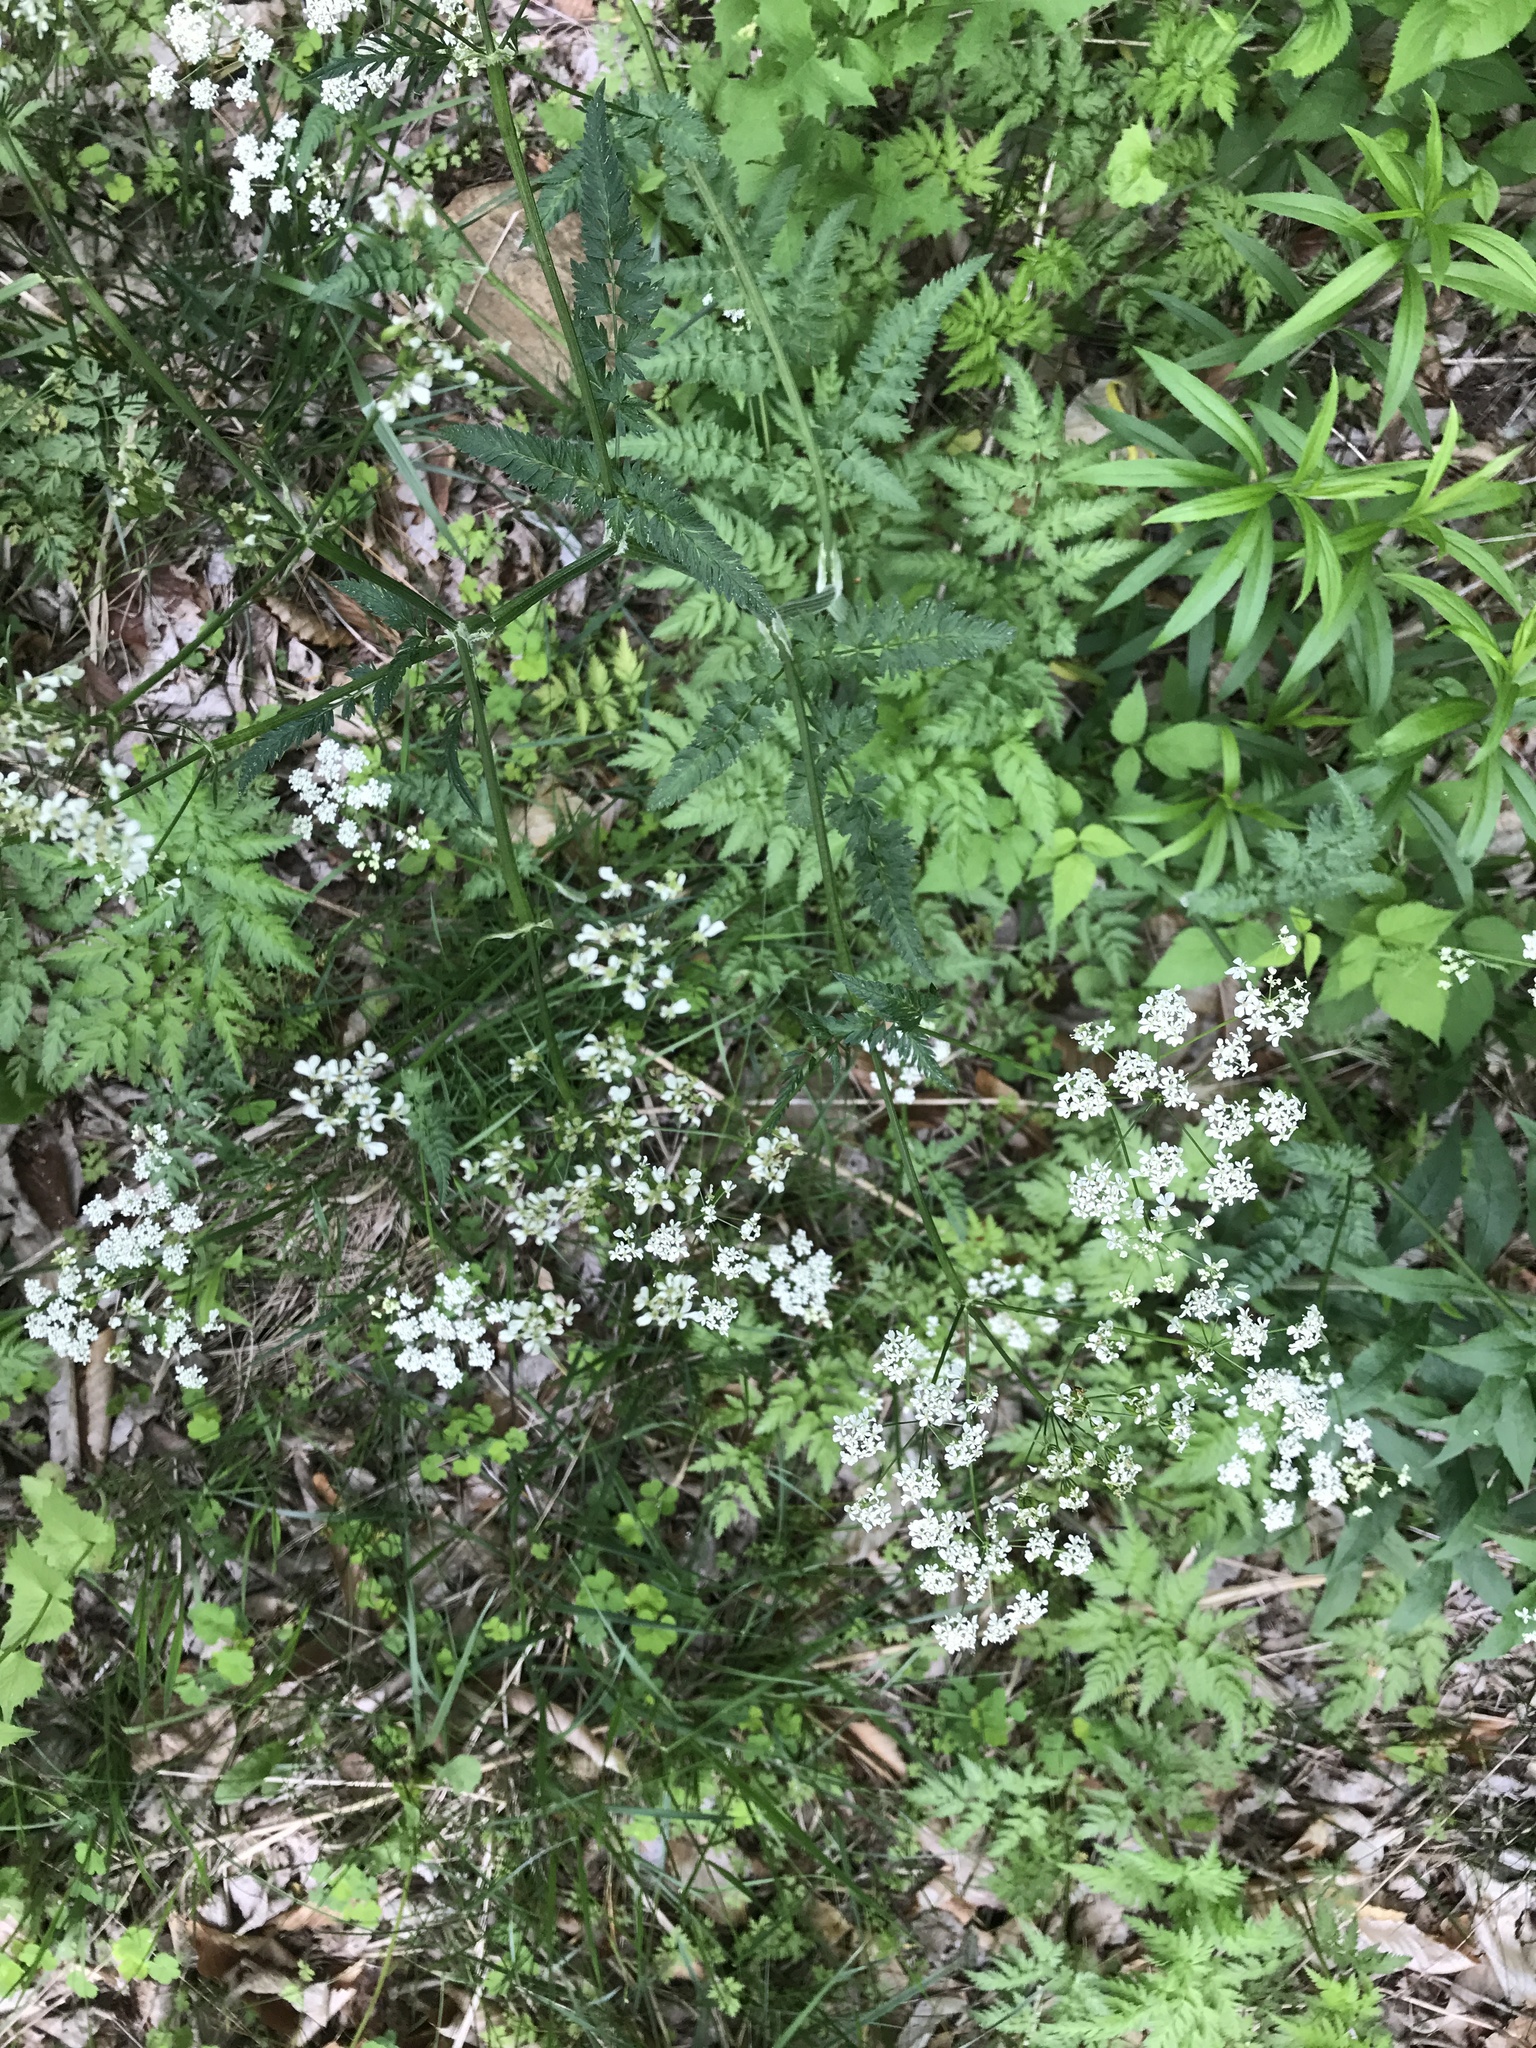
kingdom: Plantae
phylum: Tracheophyta
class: Magnoliopsida
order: Apiales
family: Apiaceae
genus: Anthriscus
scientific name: Anthriscus sylvestris
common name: Cow parsley
